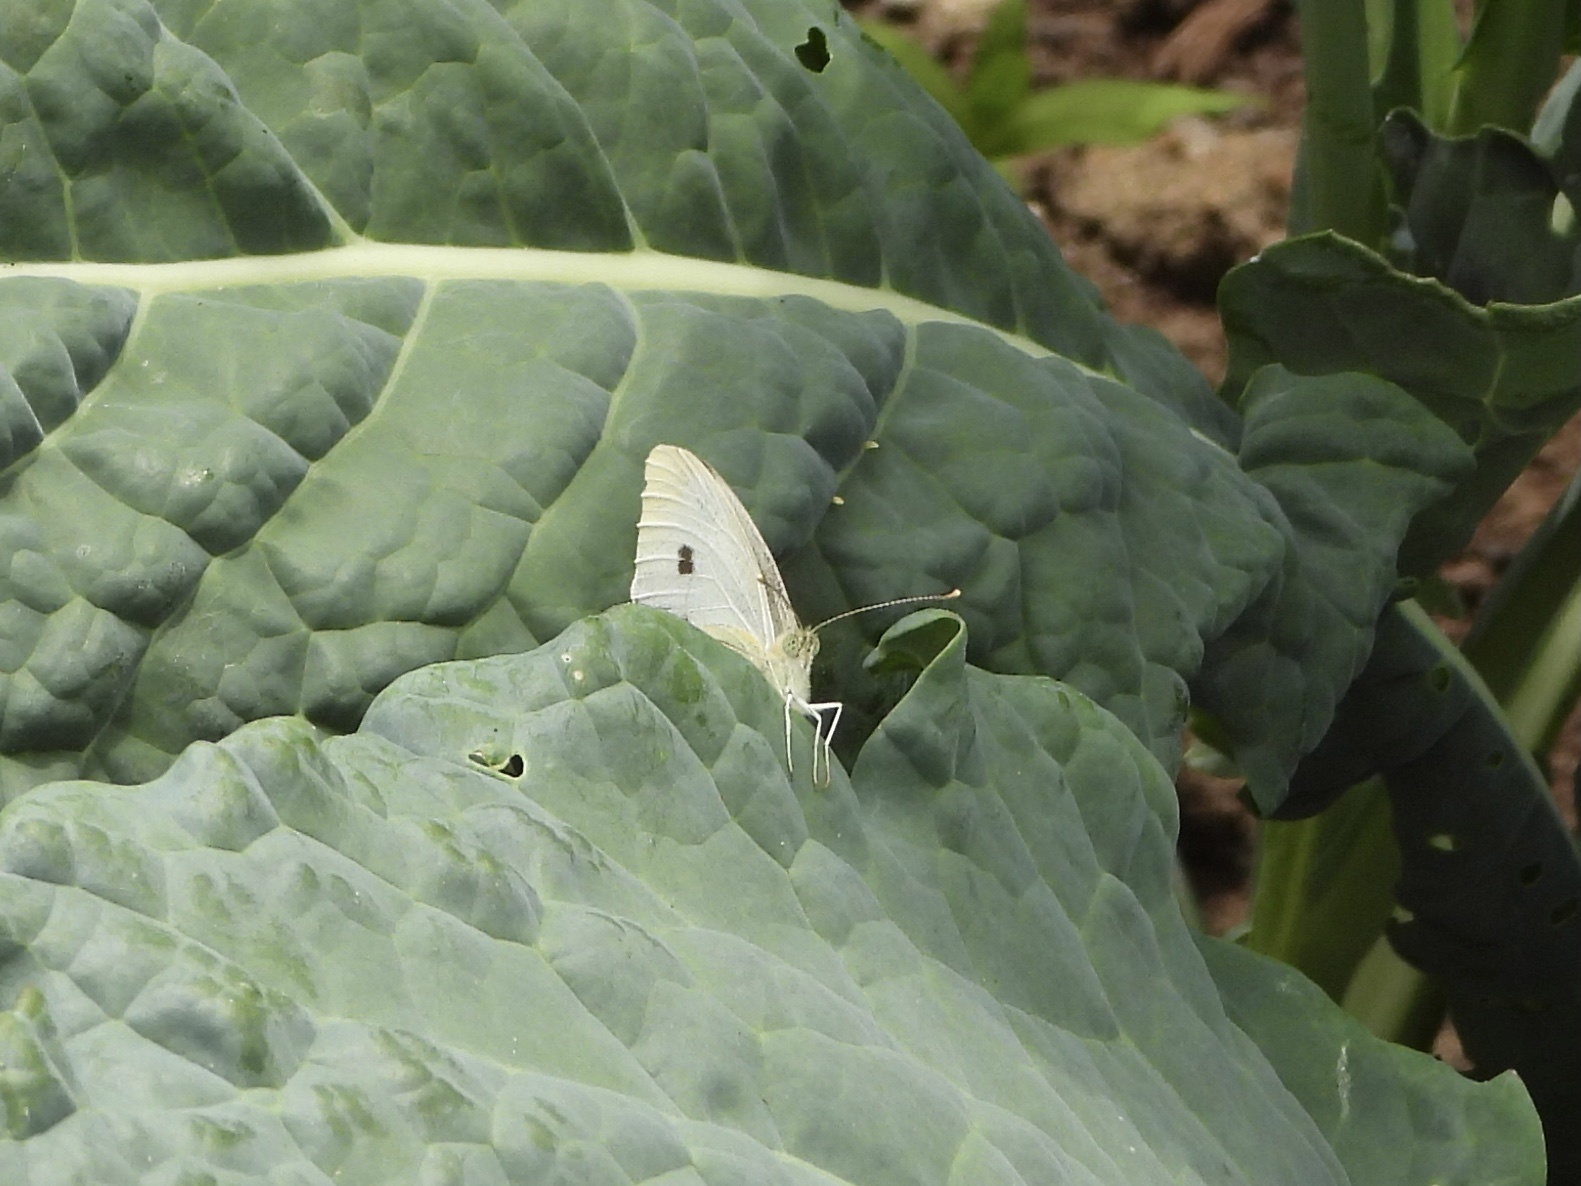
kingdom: Animalia
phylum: Arthropoda
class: Insecta
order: Lepidoptera
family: Pieridae
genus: Pieris
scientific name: Pieris rapae
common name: Small white
